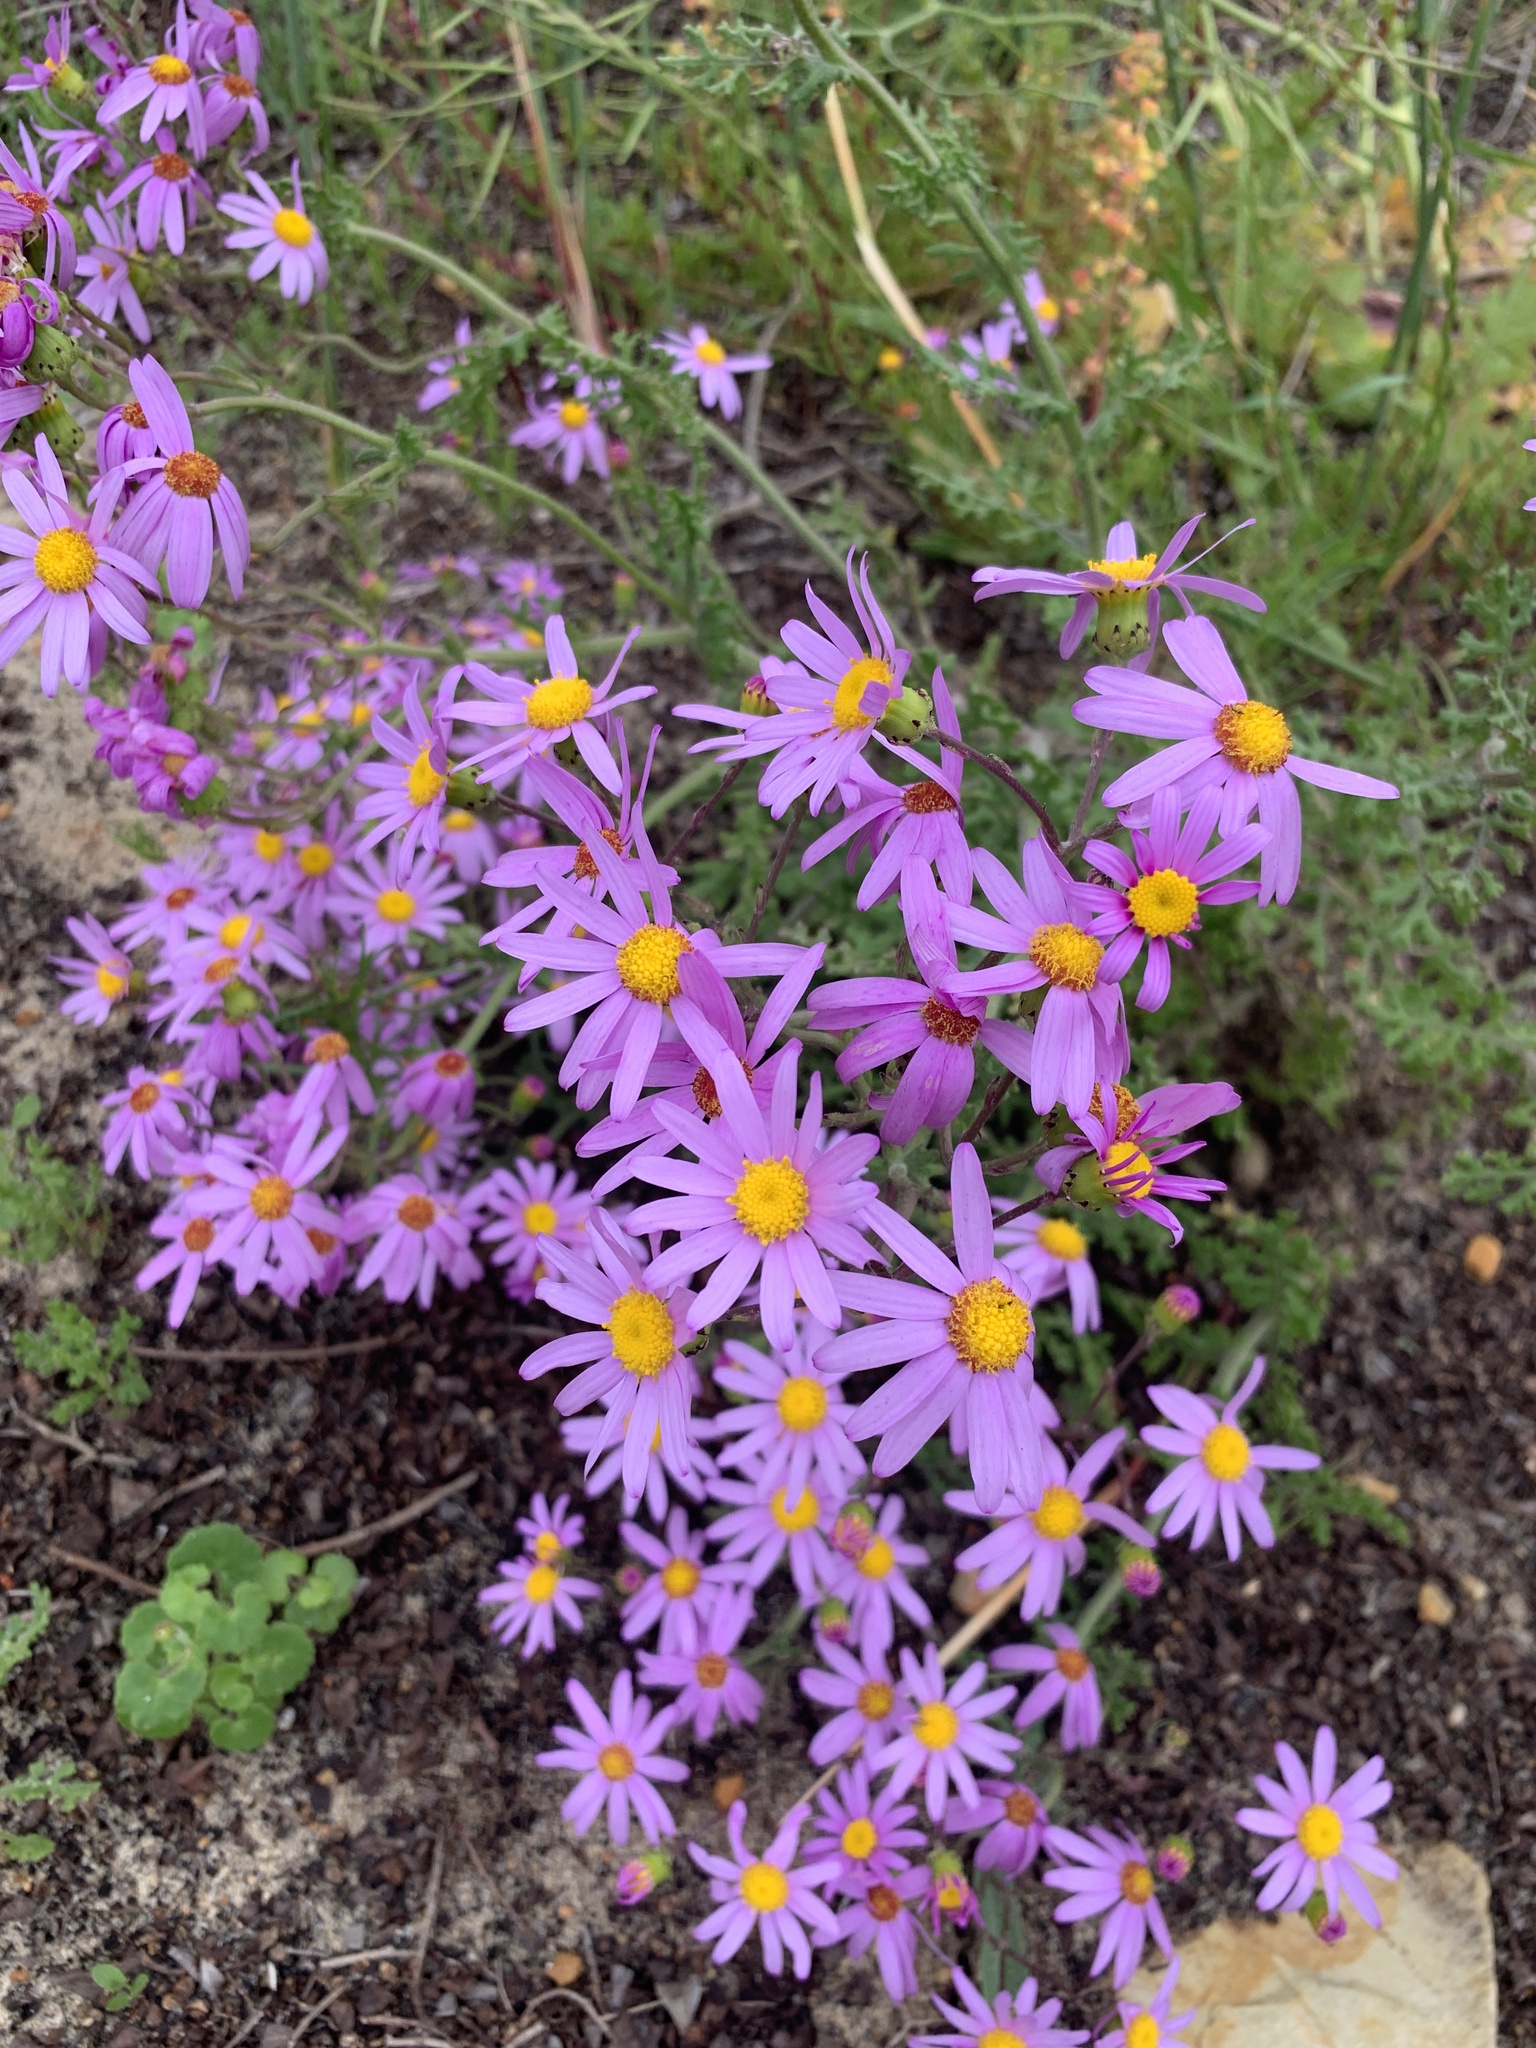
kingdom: Plantae
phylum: Tracheophyta
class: Magnoliopsida
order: Asterales
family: Asteraceae
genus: Senecio
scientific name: Senecio elegans
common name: Purple groundsel
